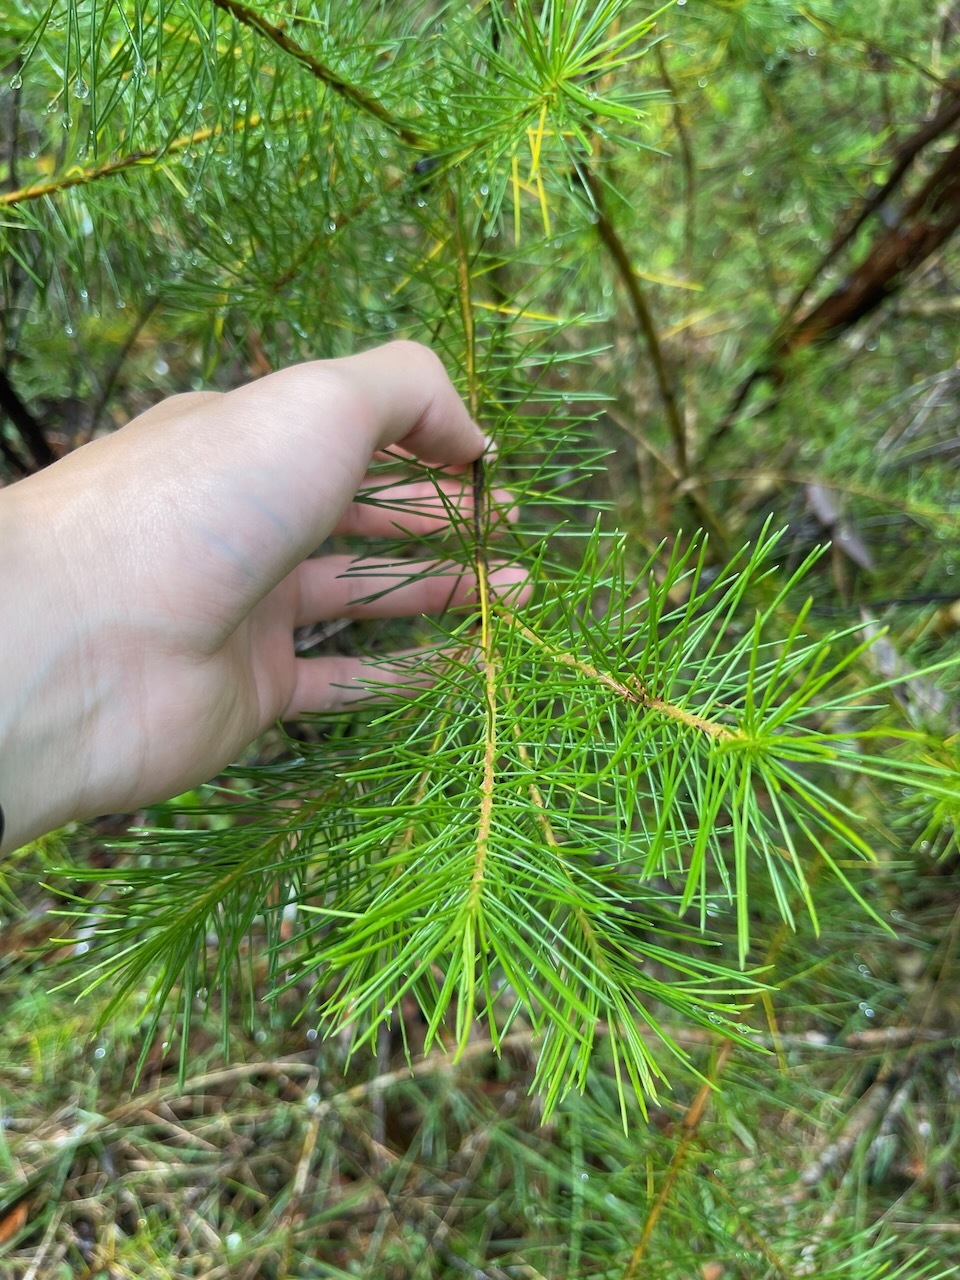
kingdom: Plantae
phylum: Tracheophyta
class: Magnoliopsida
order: Proteales
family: Proteaceae
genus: Persoonia
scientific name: Persoonia pinifolia
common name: Pine-leaf geebung
